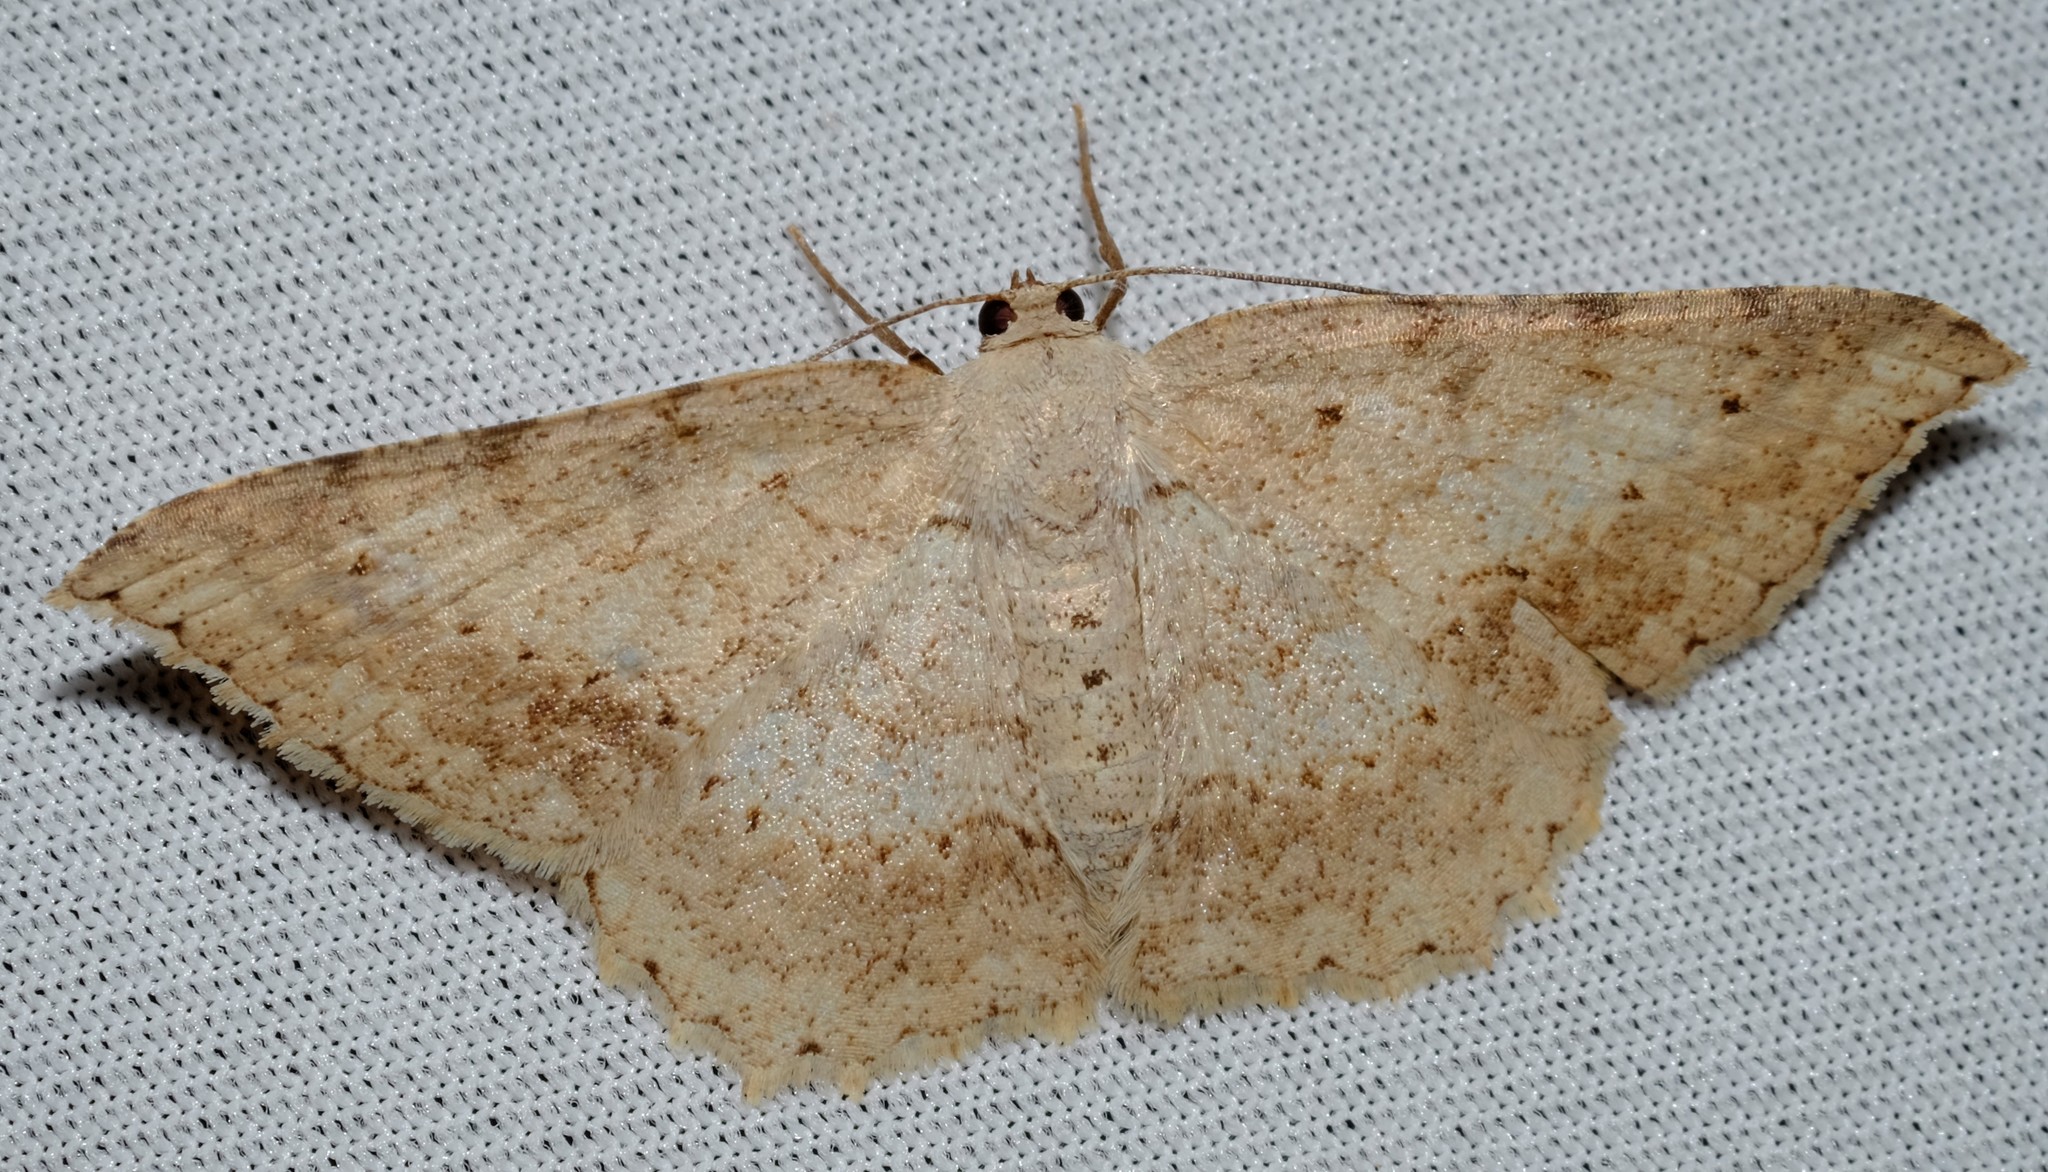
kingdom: Animalia
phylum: Arthropoda
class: Insecta
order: Lepidoptera
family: Geometridae
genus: Luxiaria
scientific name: Luxiaria ochrophara
